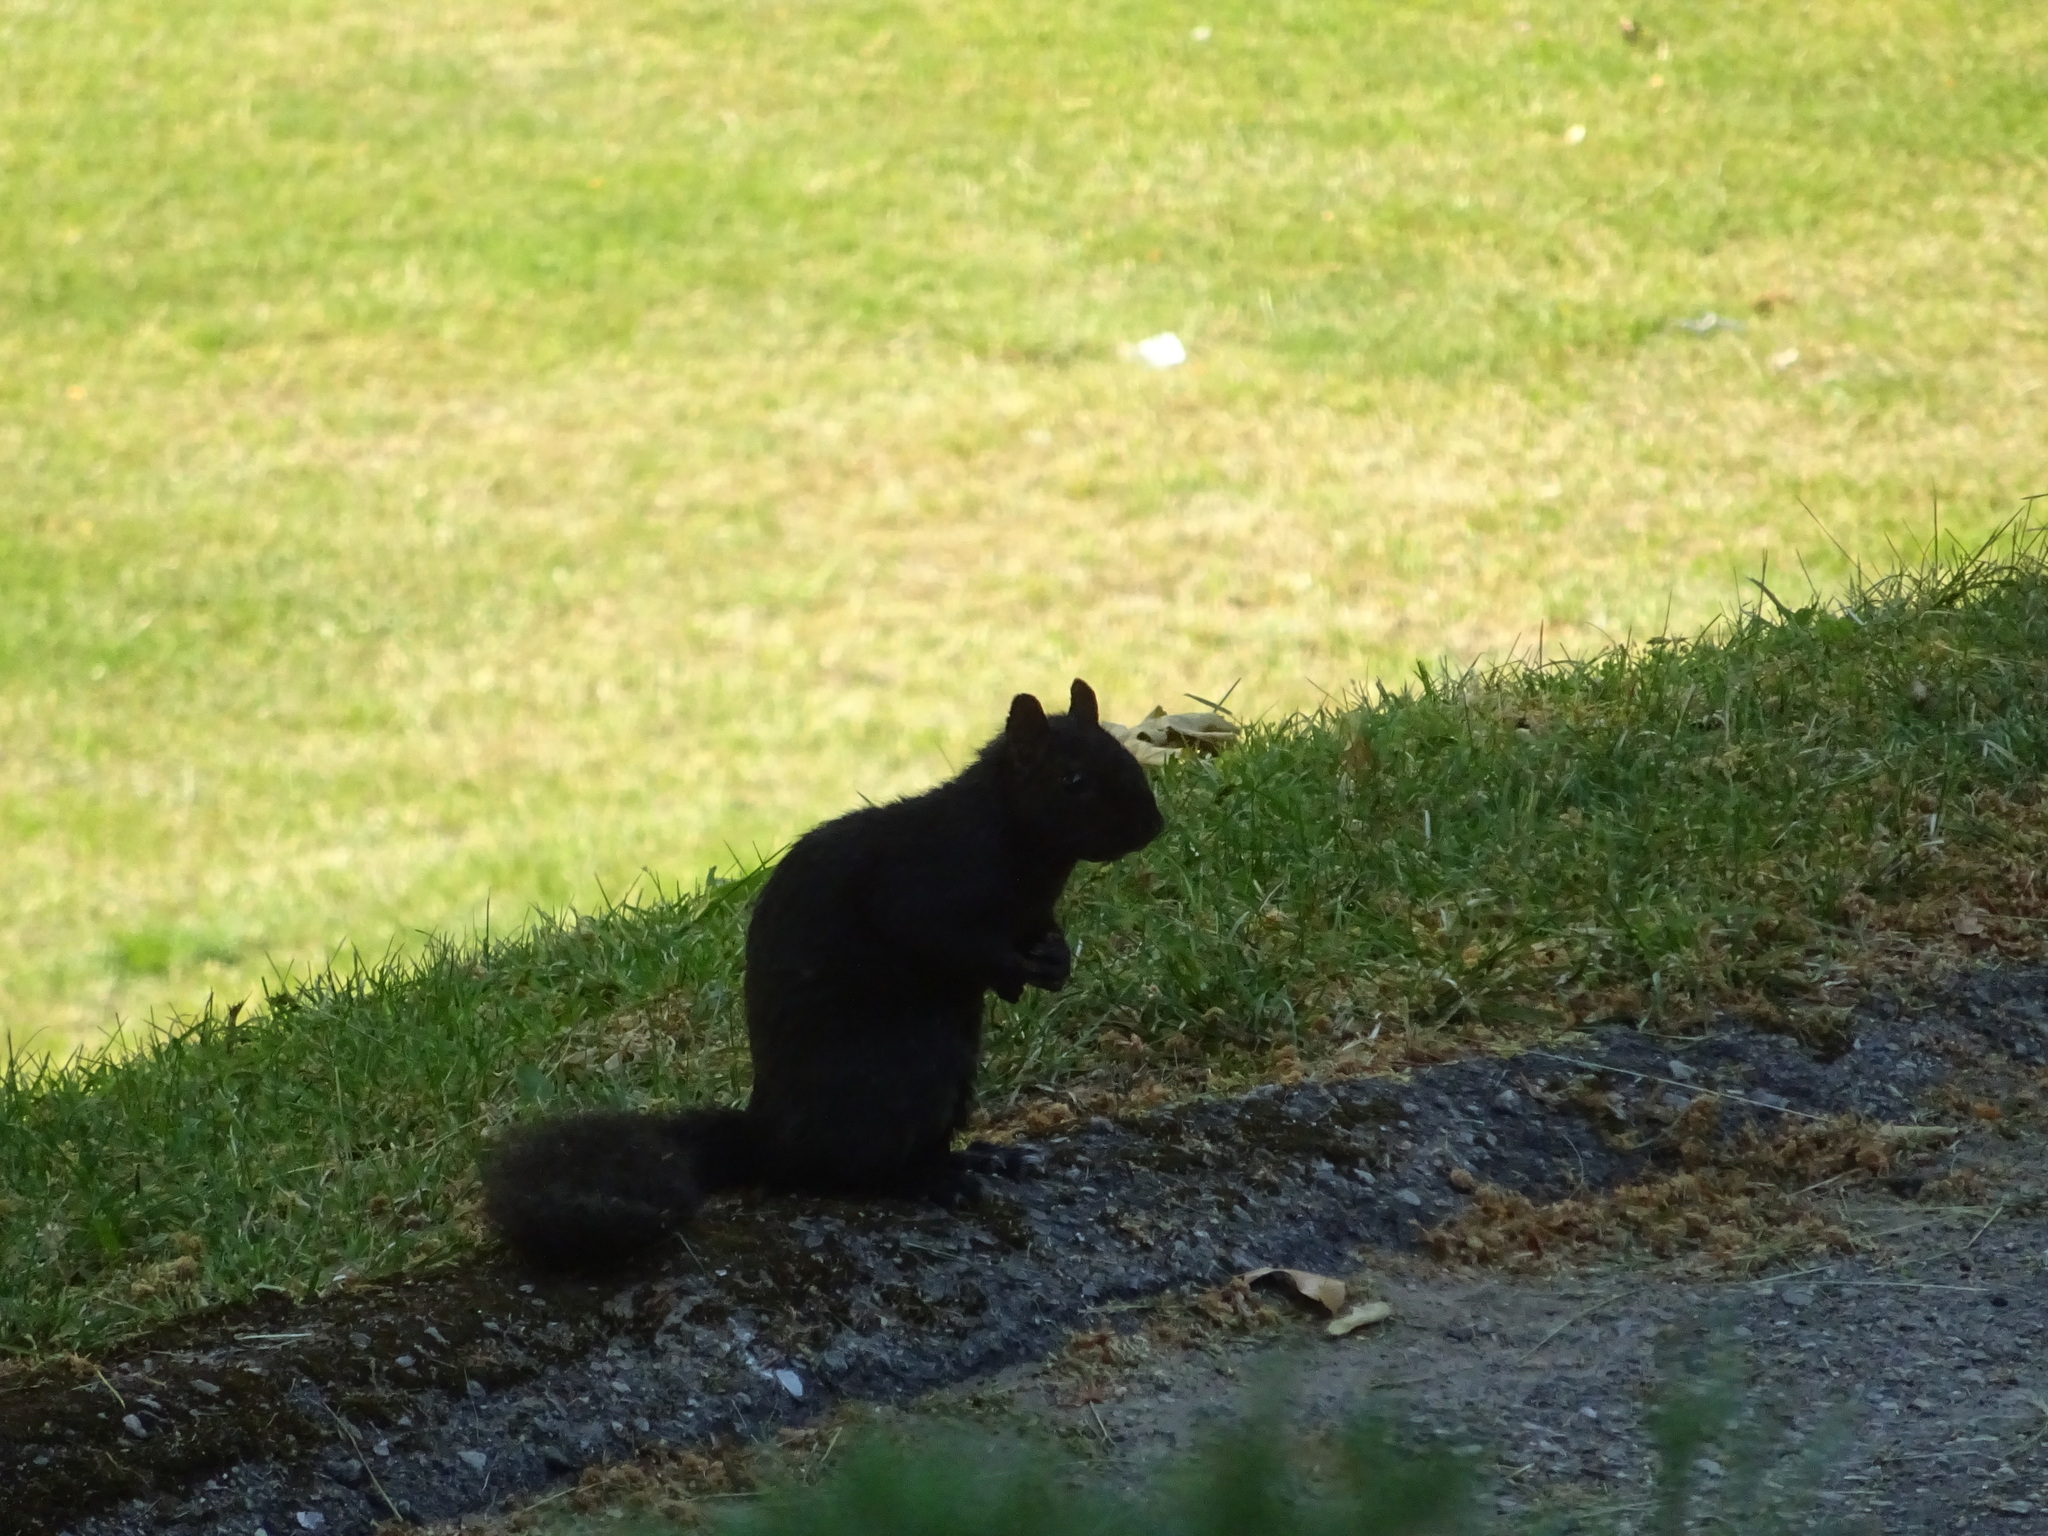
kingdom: Animalia
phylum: Chordata
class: Mammalia
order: Rodentia
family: Sciuridae
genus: Sciurus
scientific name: Sciurus carolinensis
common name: Eastern gray squirrel
